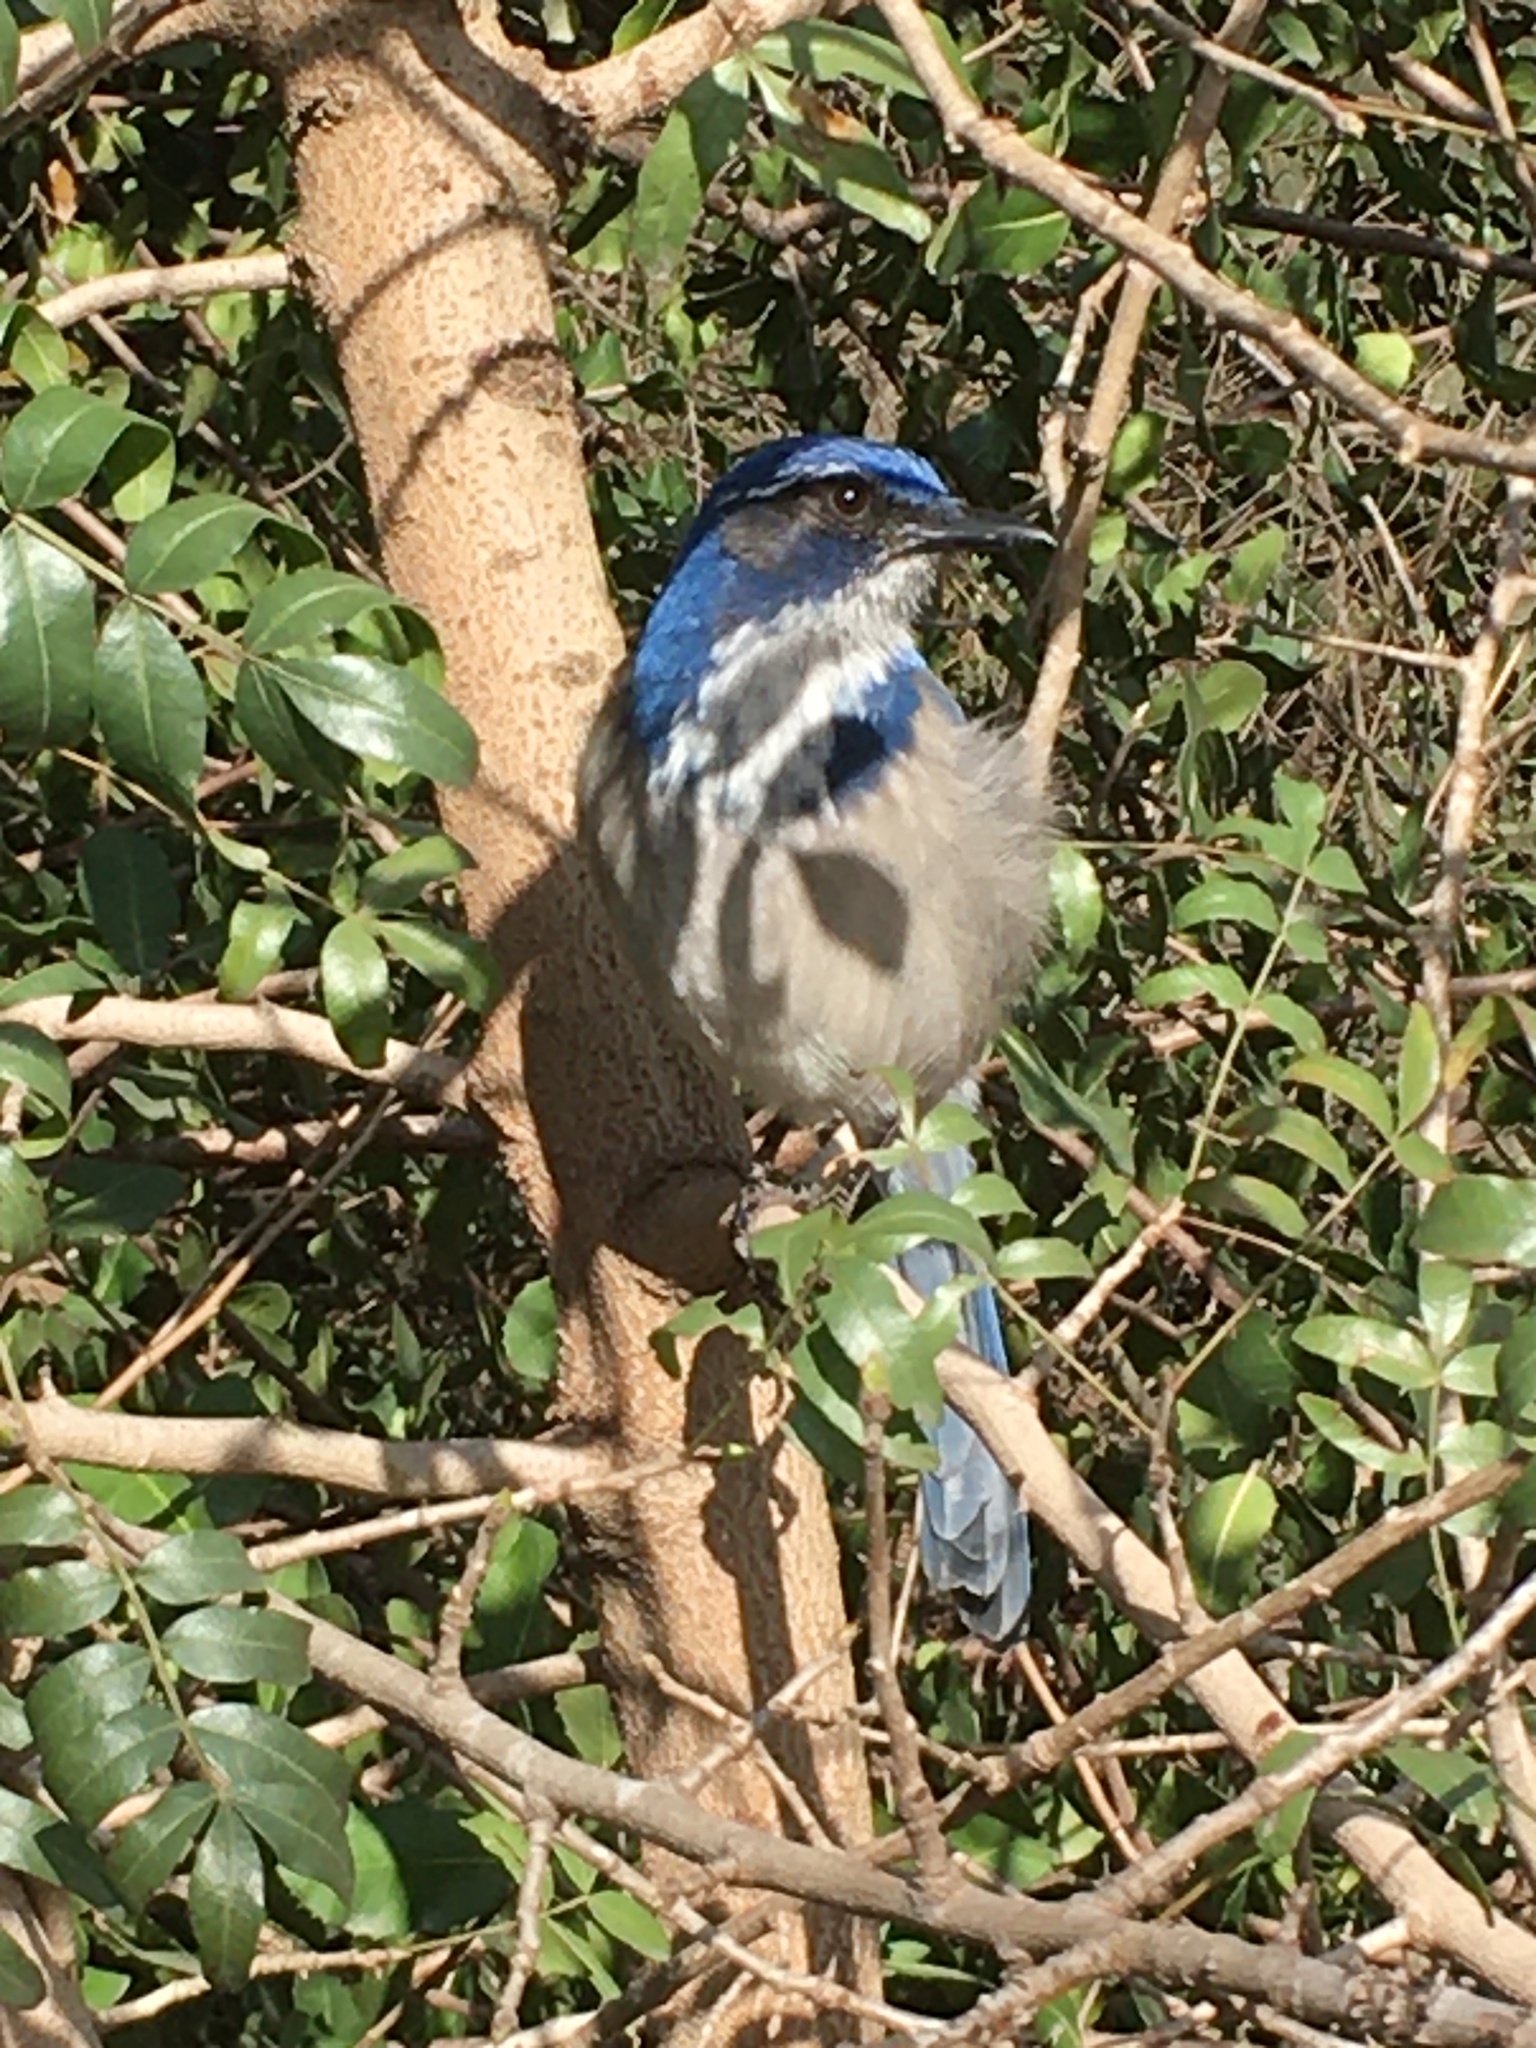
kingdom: Animalia
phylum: Chordata
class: Aves
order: Passeriformes
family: Corvidae
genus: Aphelocoma
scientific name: Aphelocoma californica
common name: California scrub-jay
